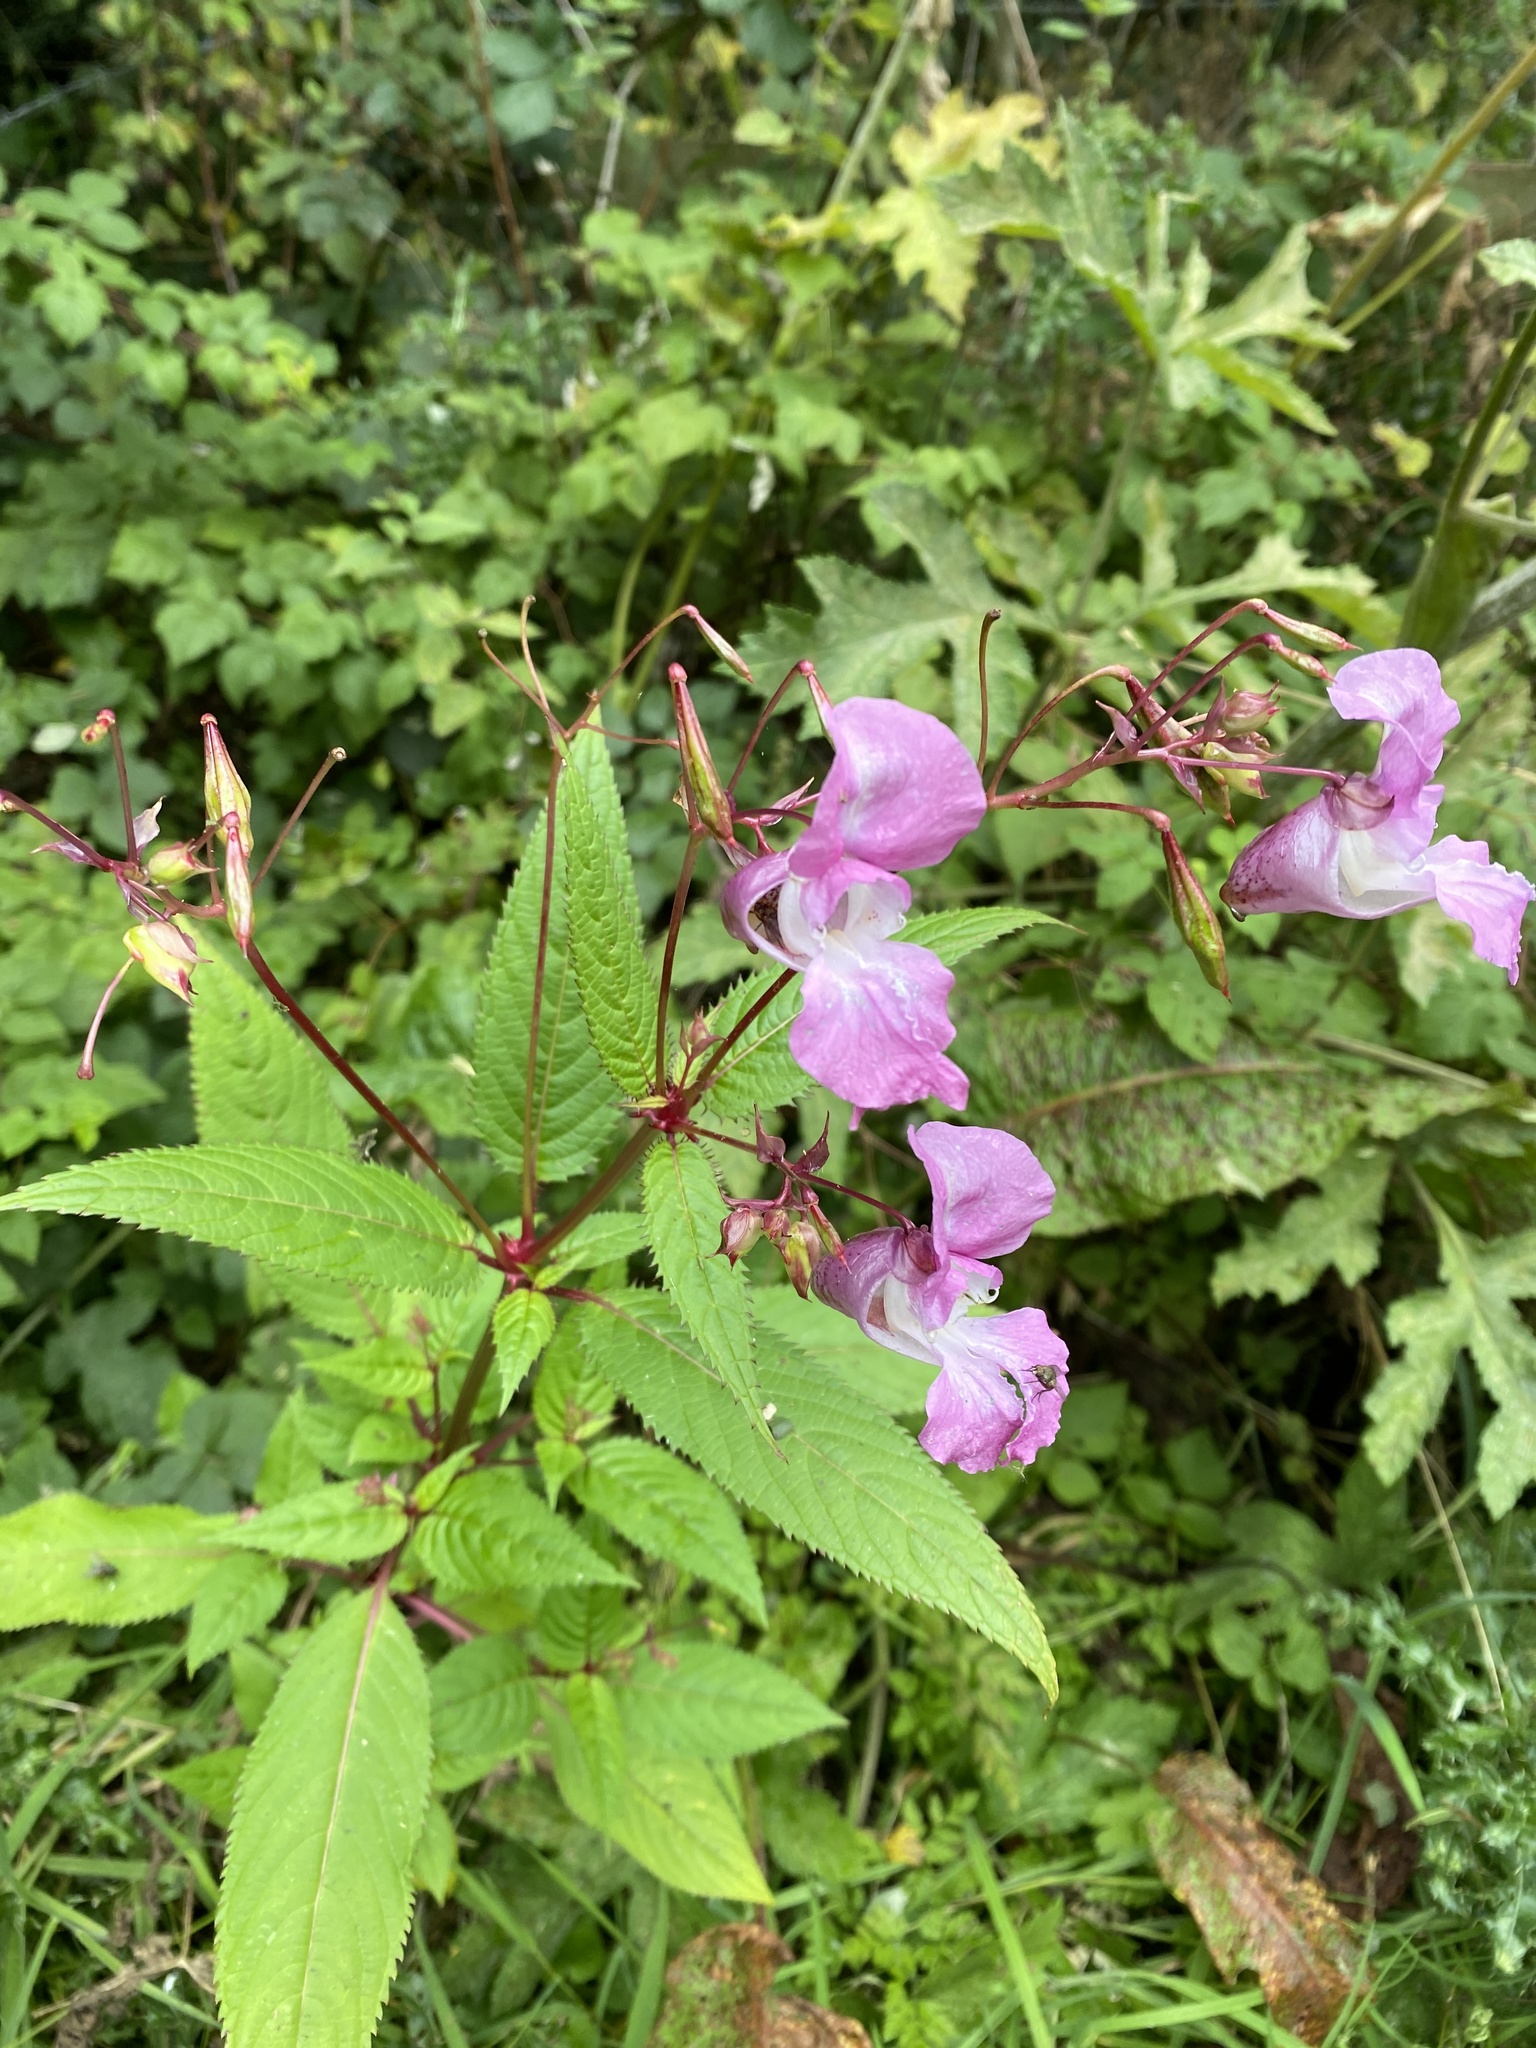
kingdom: Plantae
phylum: Tracheophyta
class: Magnoliopsida
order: Ericales
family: Balsaminaceae
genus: Impatiens
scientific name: Impatiens glandulifera
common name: Himalayan balsam
